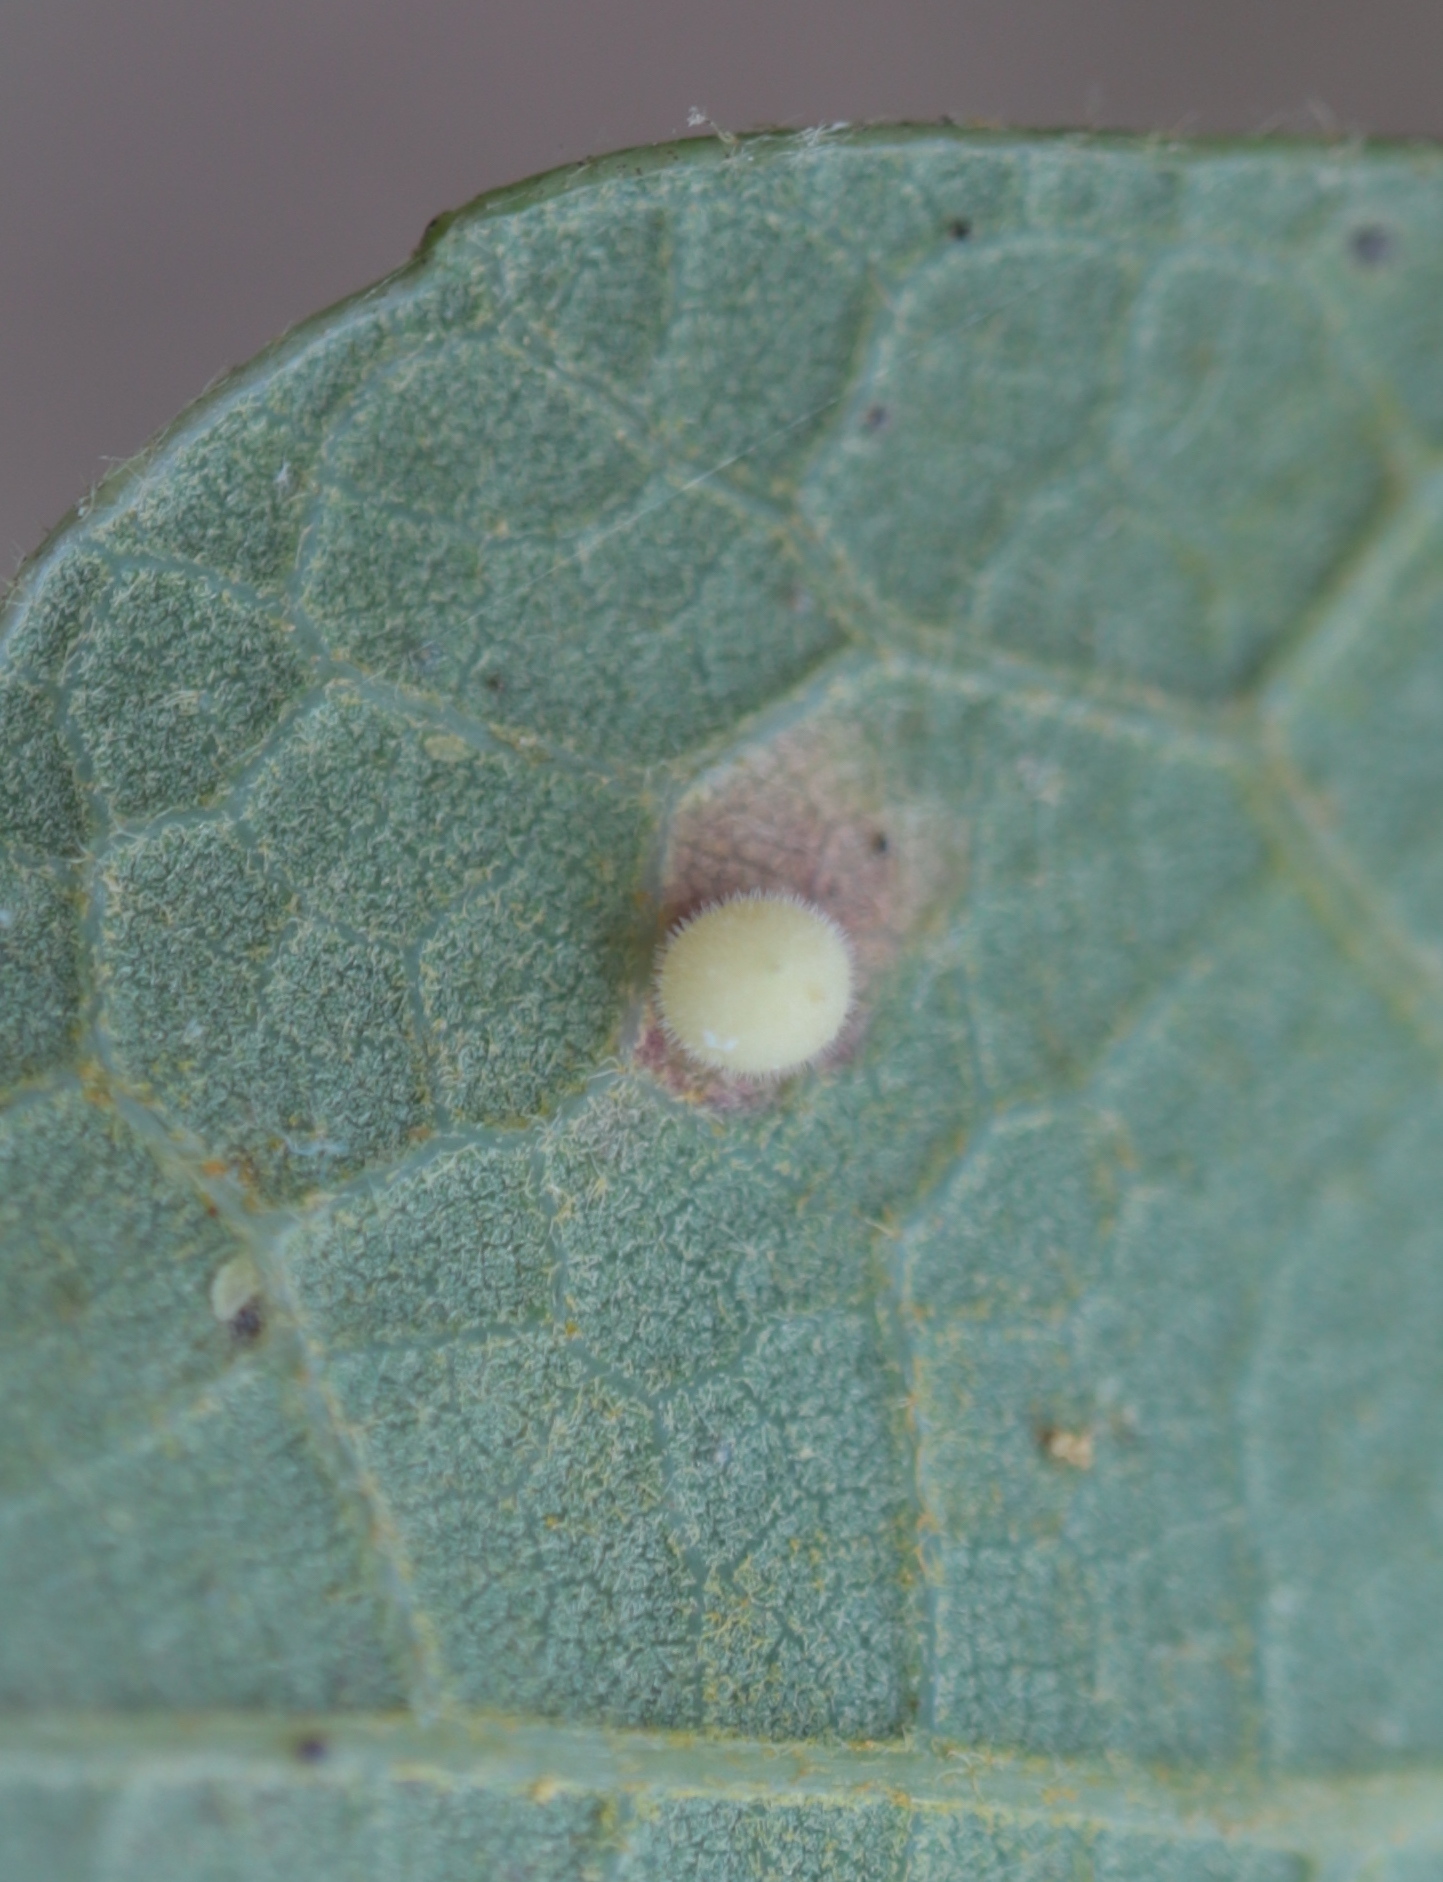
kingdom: Animalia
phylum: Arthropoda
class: Insecta
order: Hymenoptera
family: Cynipidae
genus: Neuroterus
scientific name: Neuroterus saltarius
